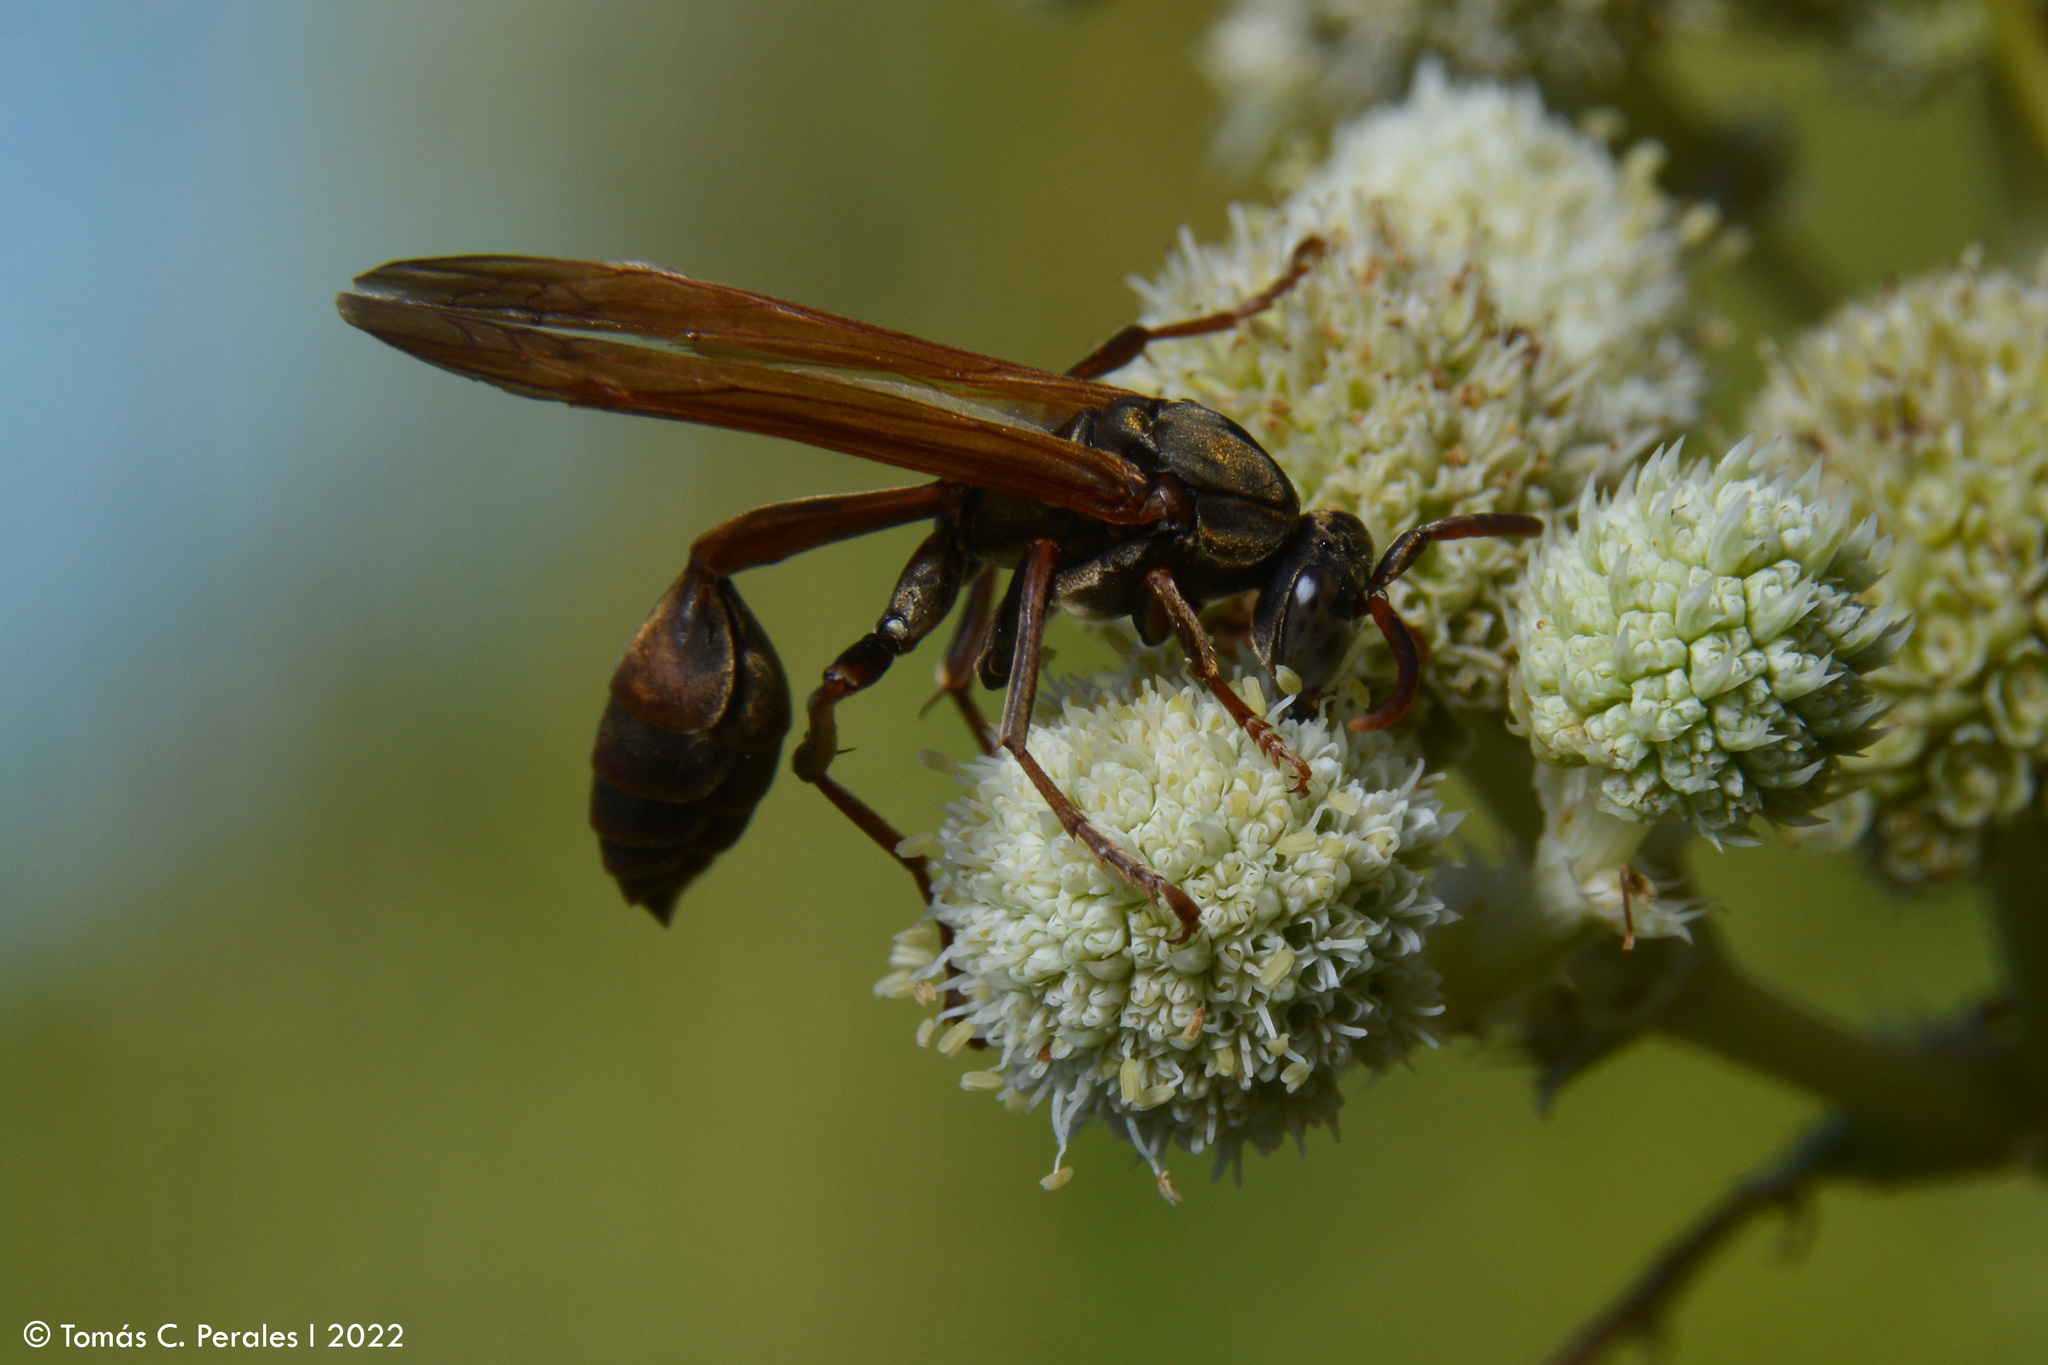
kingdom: Animalia
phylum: Arthropoda
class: Insecta
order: Hymenoptera
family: Vespidae
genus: Mischocyttarus
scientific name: Mischocyttarus drewseni
